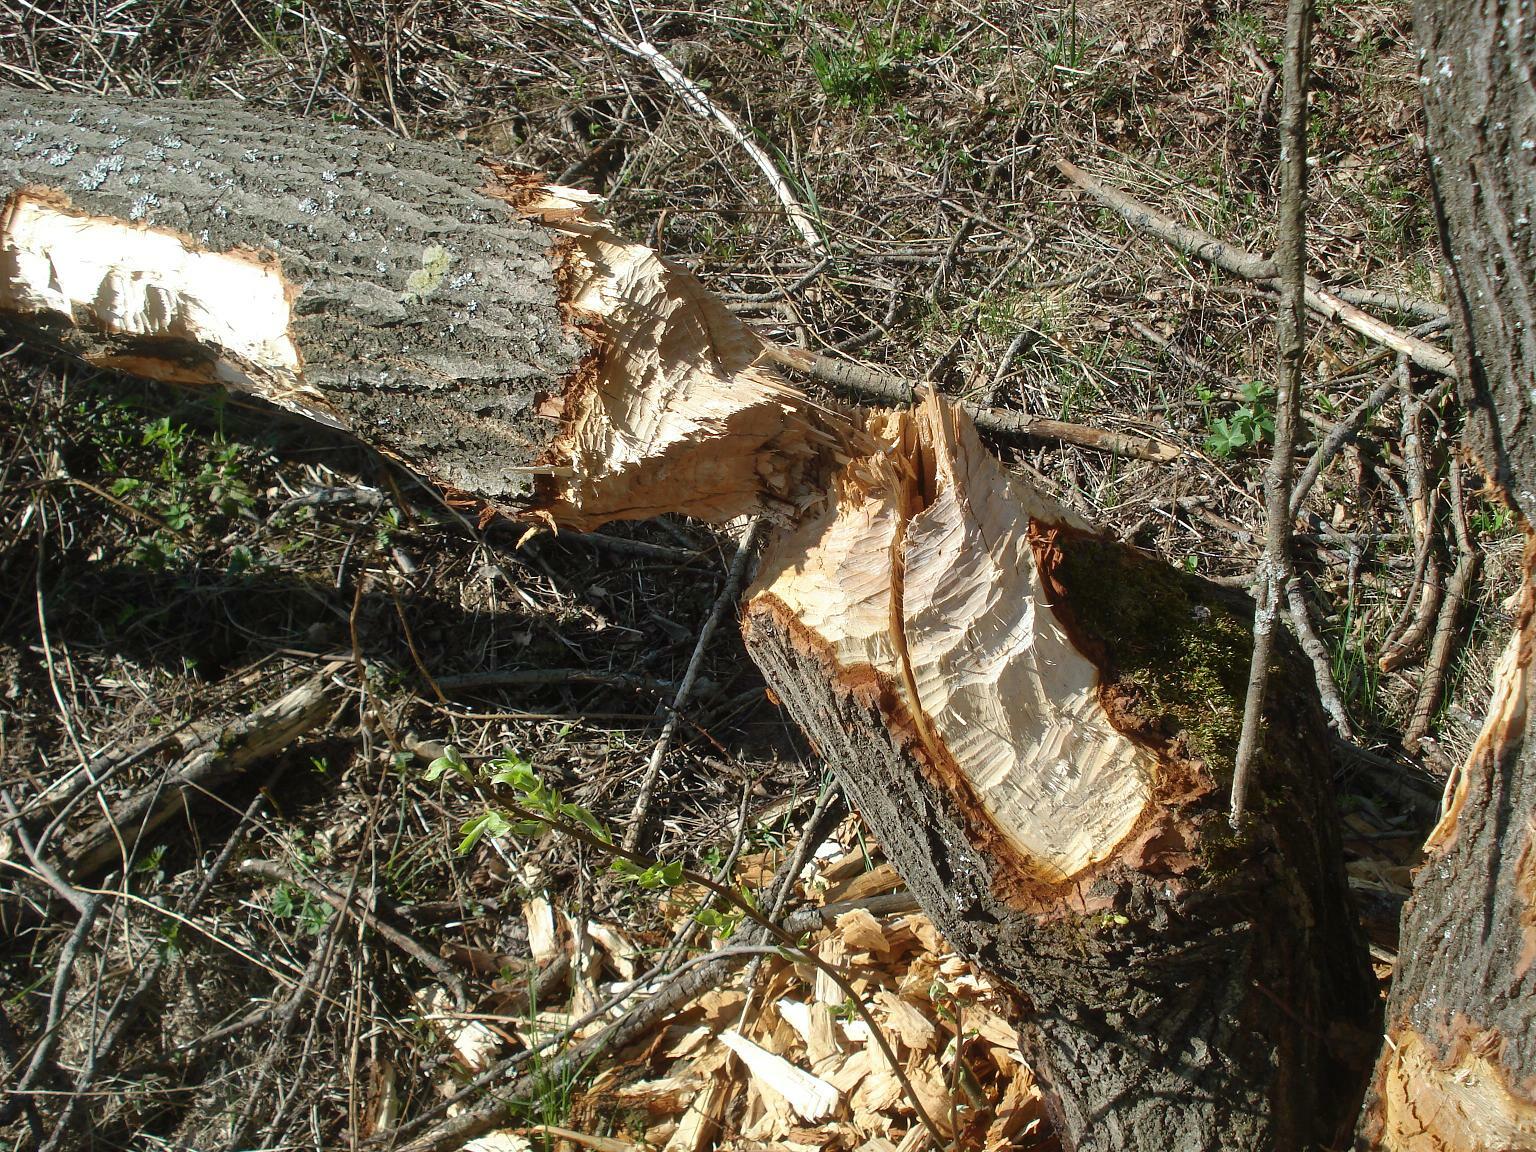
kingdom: Animalia
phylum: Chordata
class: Mammalia
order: Rodentia
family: Castoridae
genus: Castor
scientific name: Castor fiber
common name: Eurasian beaver
